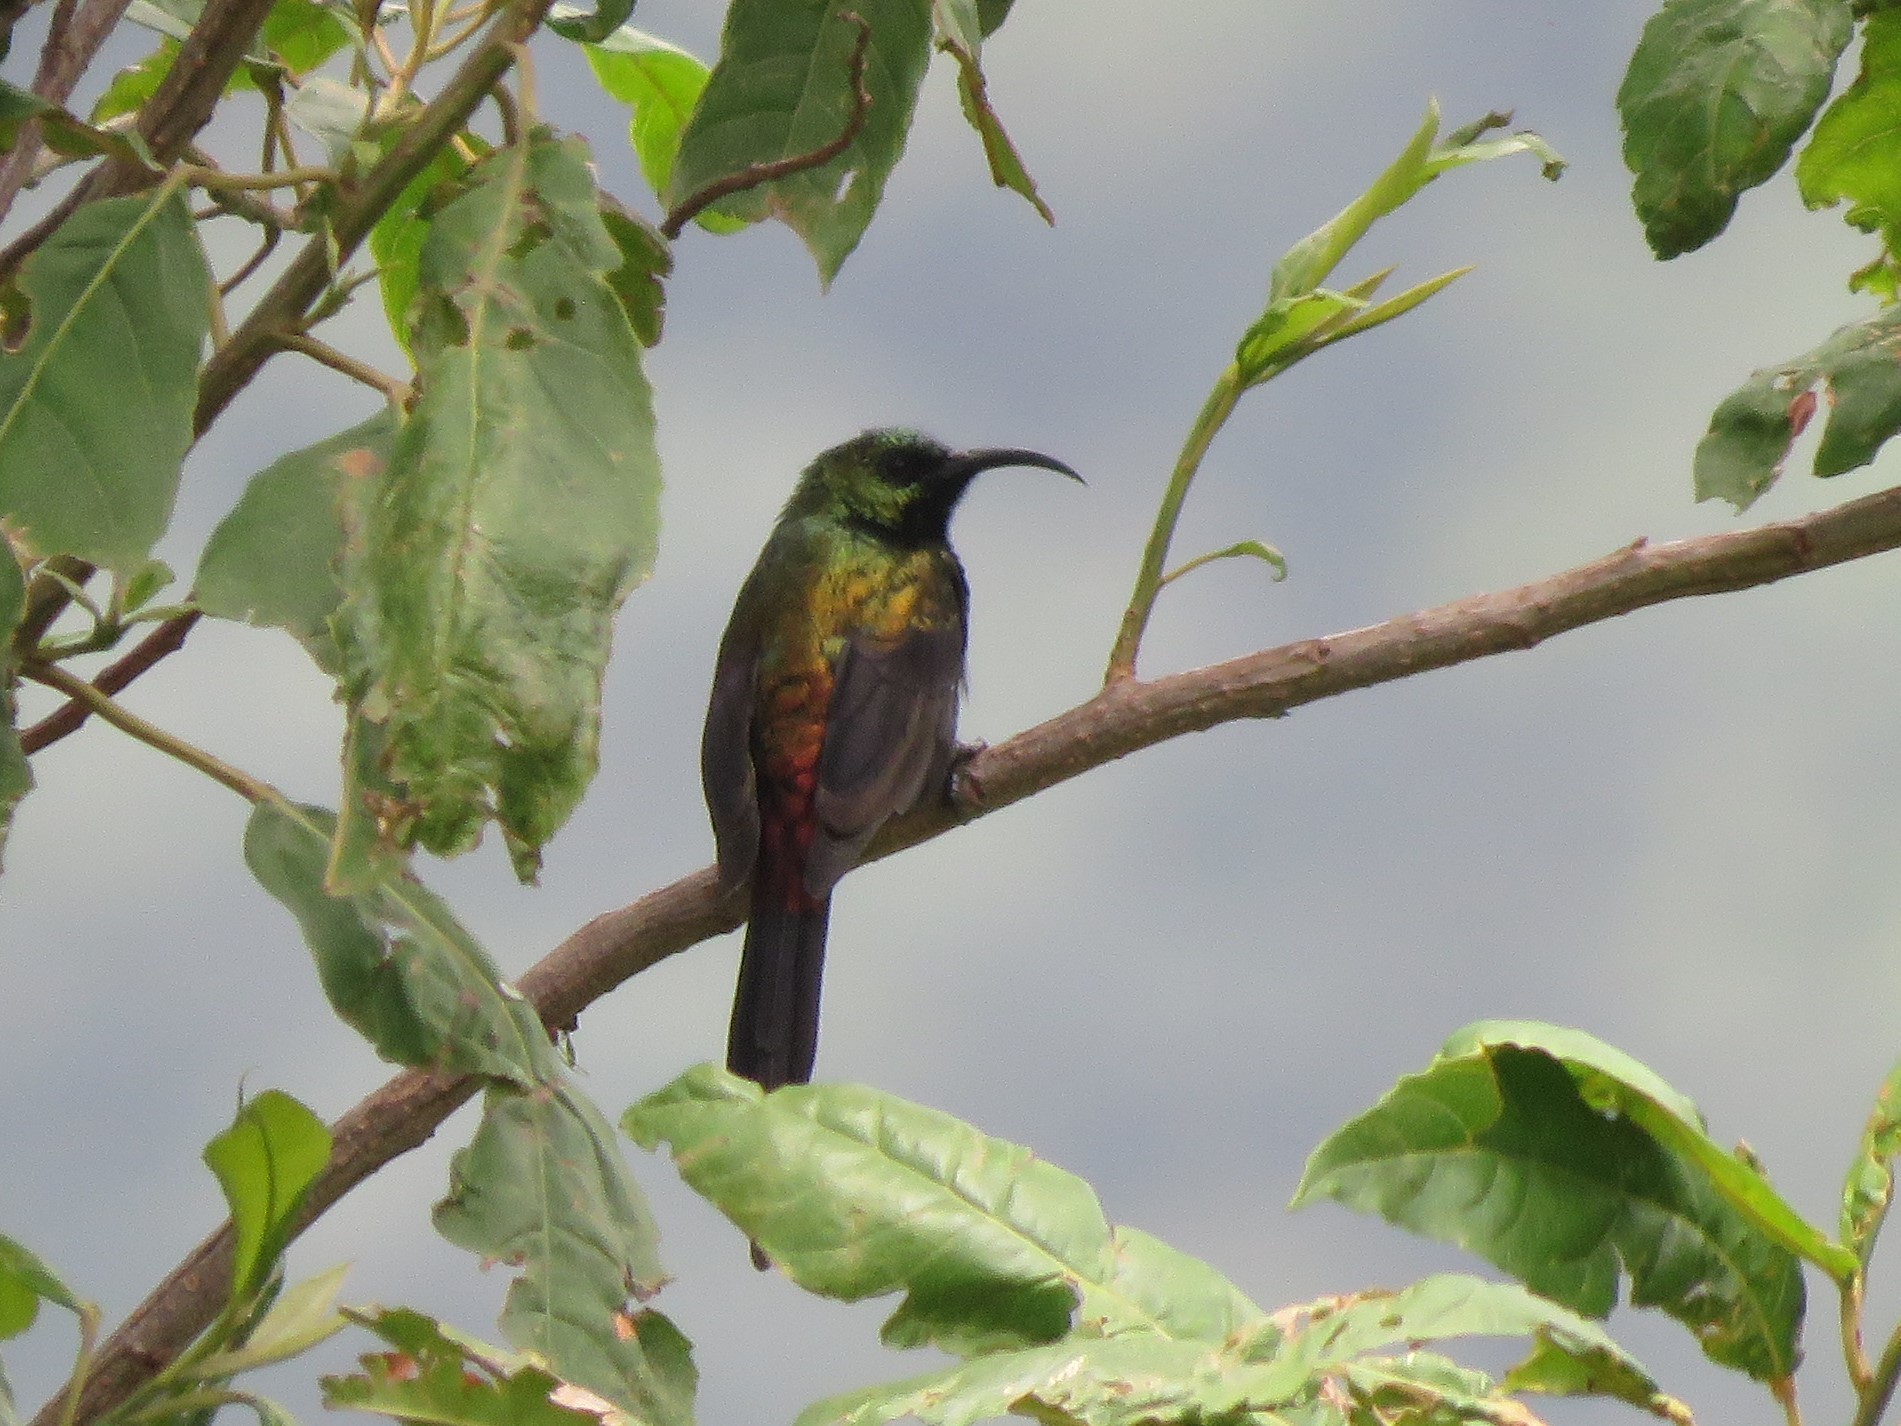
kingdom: Animalia
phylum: Chordata
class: Aves
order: Passeriformes
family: Nectariniidae
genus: Nectarinia
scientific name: Nectarinia kilimensis
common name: Bronzy sunbird
